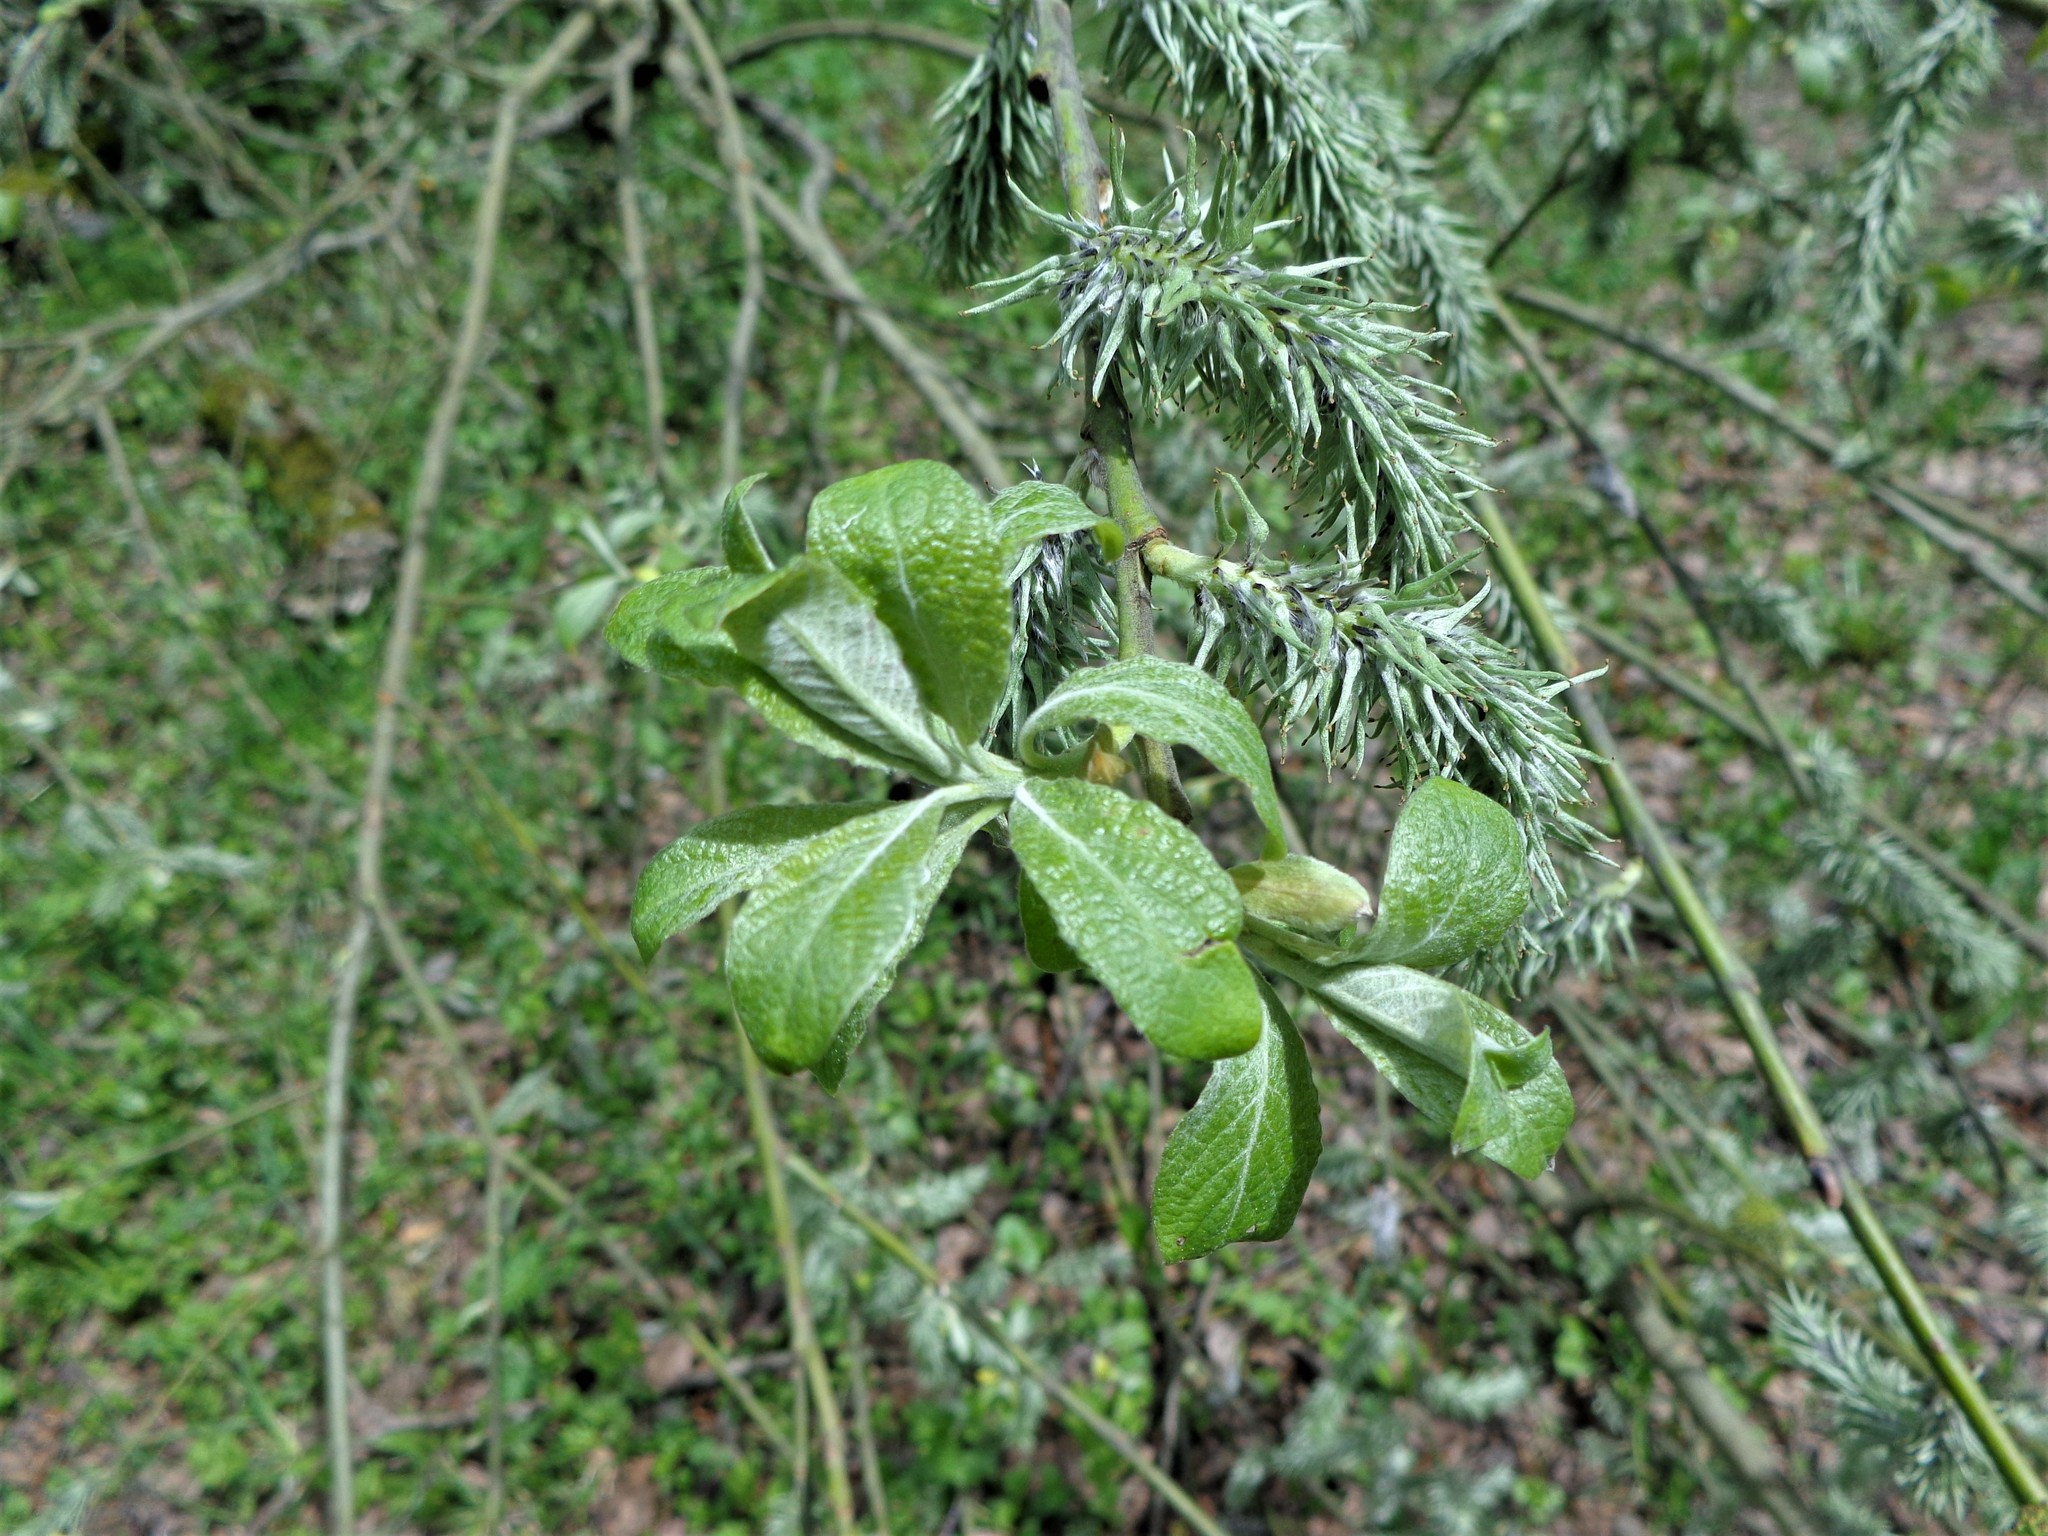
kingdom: Plantae
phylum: Tracheophyta
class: Magnoliopsida
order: Malpighiales
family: Salicaceae
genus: Salix
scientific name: Salix caprea
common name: Goat willow
